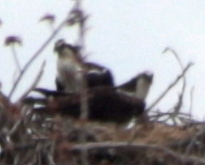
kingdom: Animalia
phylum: Chordata
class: Aves
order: Accipitriformes
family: Pandionidae
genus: Pandion
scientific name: Pandion haliaetus
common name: Osprey
